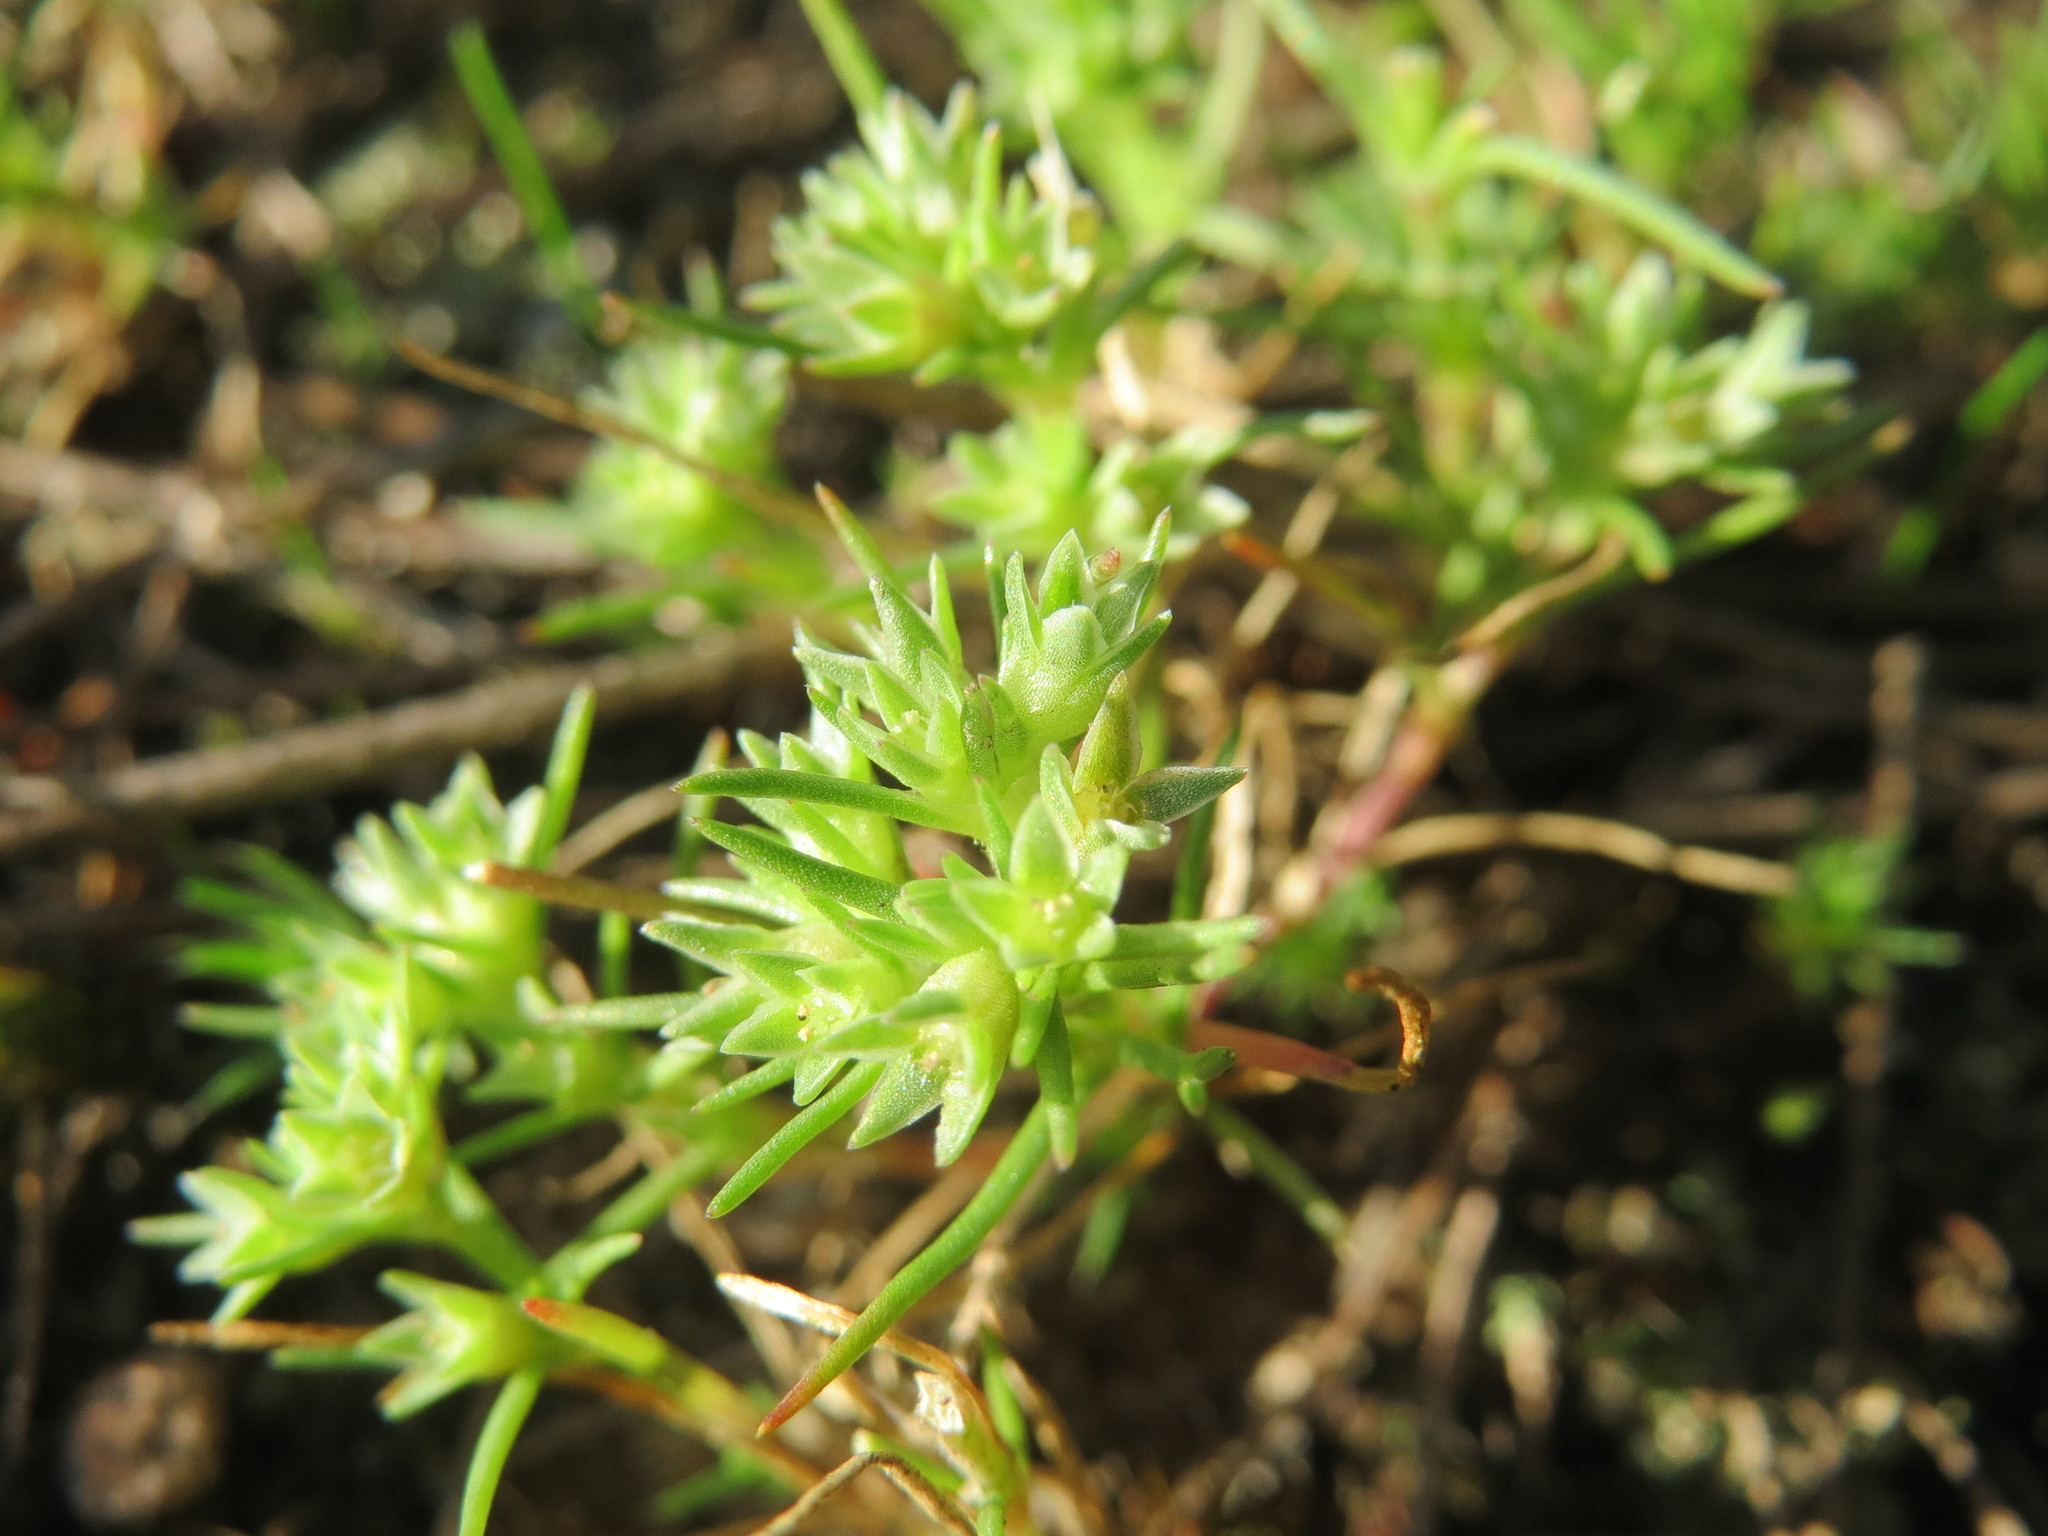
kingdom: Plantae
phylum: Tracheophyta
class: Magnoliopsida
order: Caryophyllales
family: Caryophyllaceae
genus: Scleranthus
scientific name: Scleranthus annuus
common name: Annual knawel
